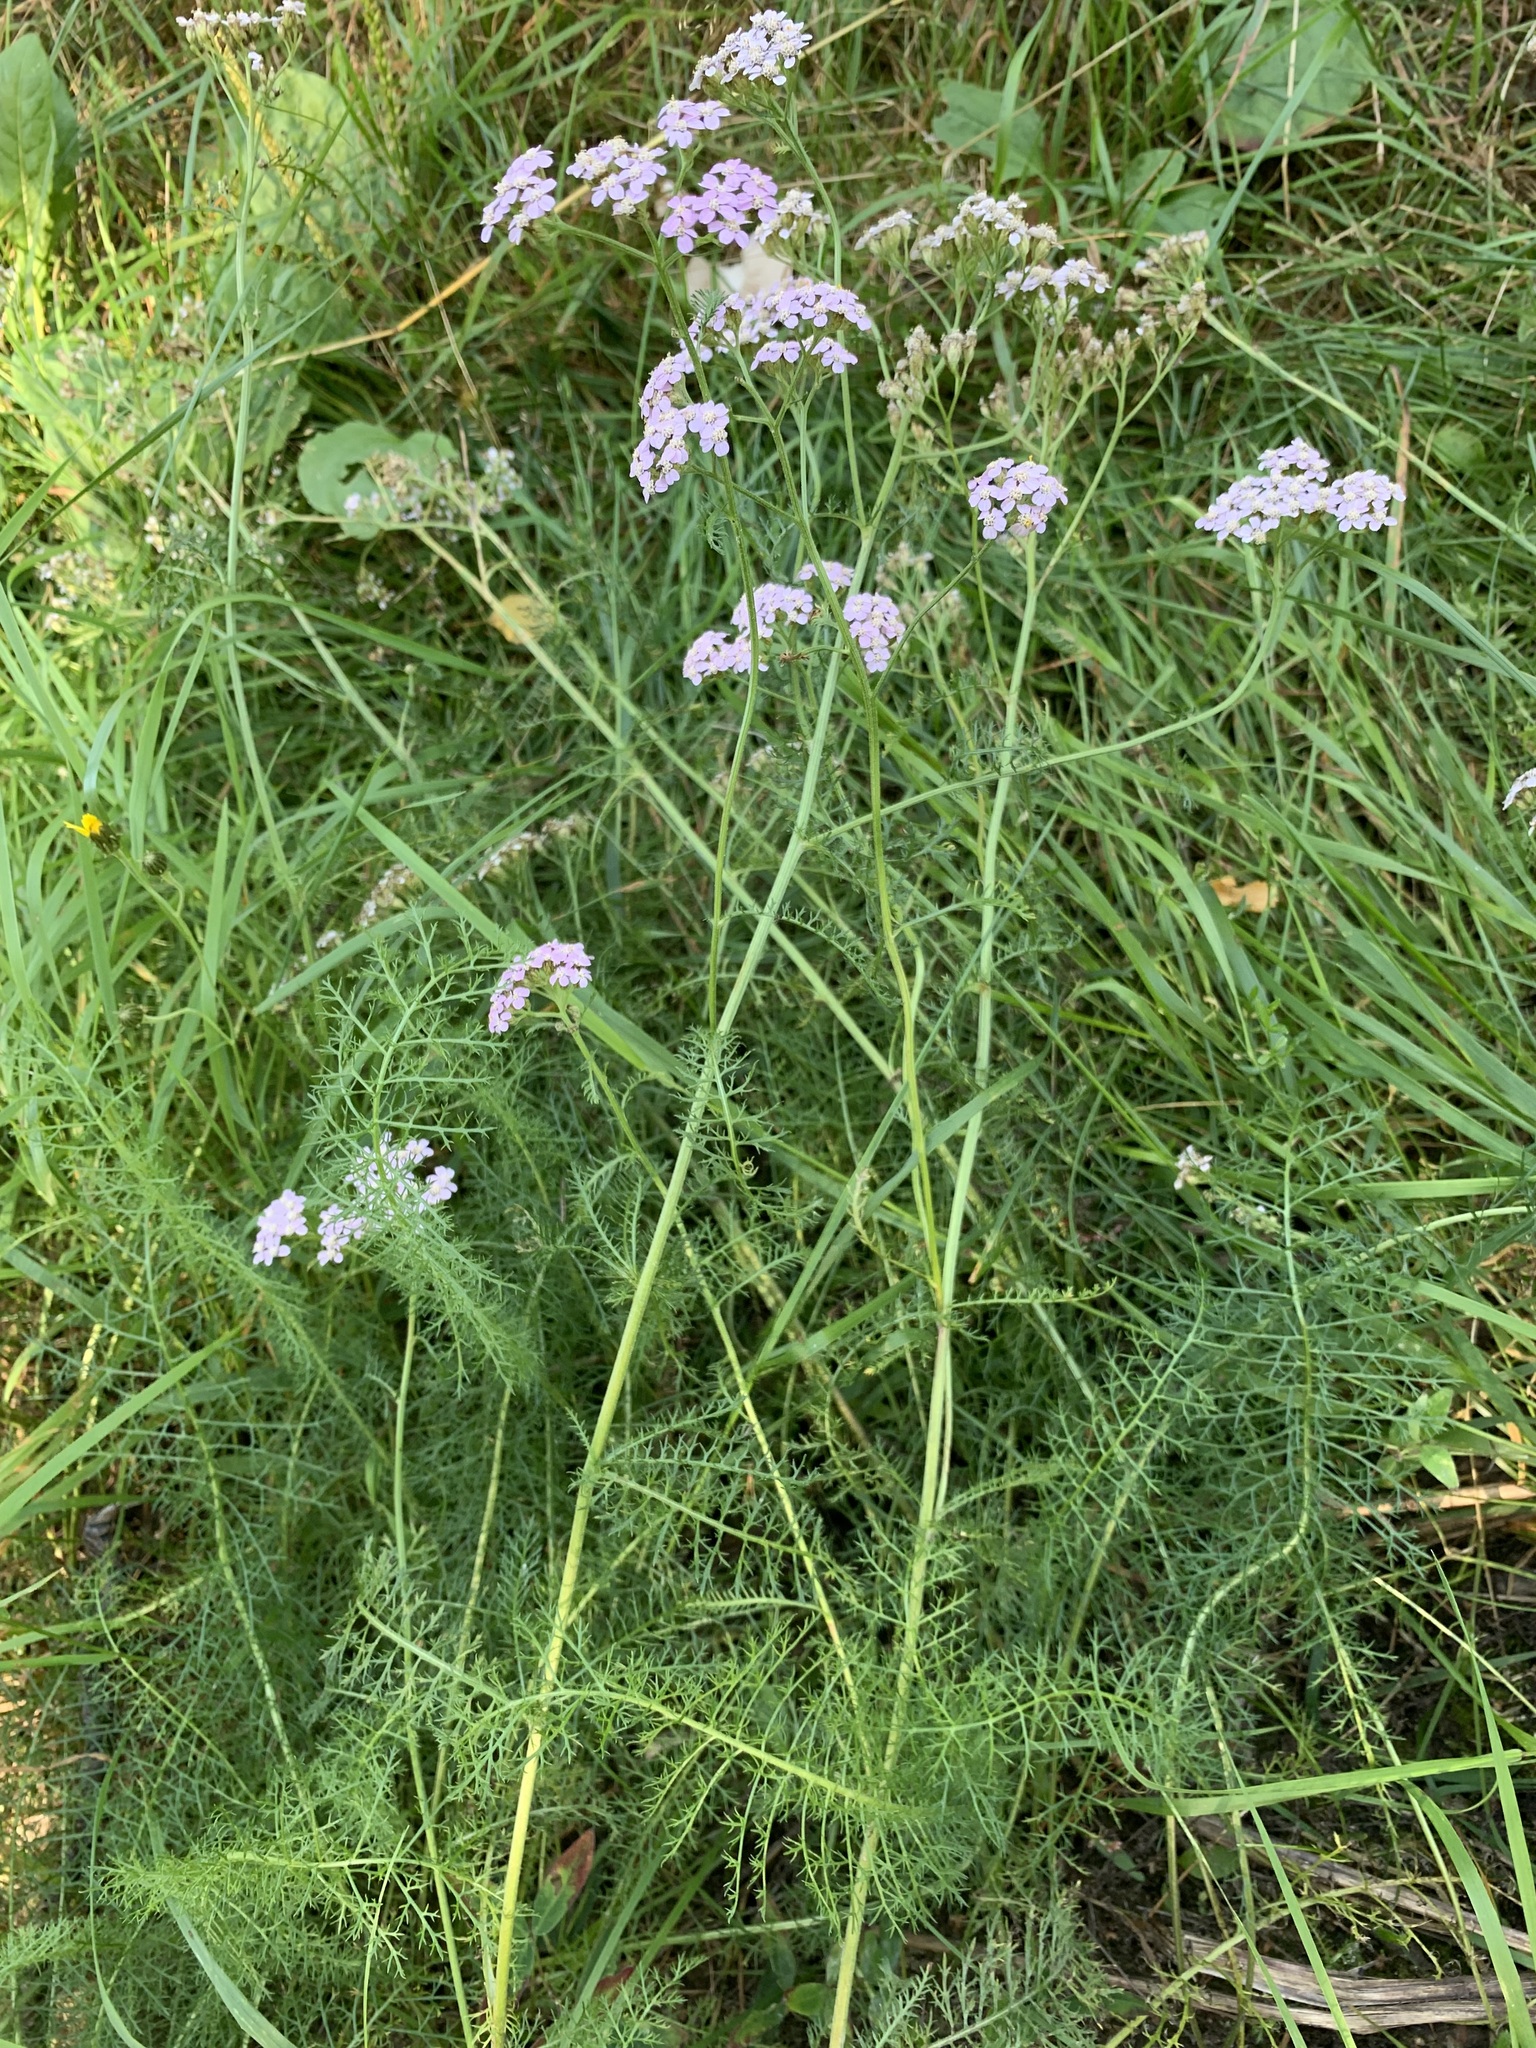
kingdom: Plantae
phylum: Tracheophyta
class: Magnoliopsida
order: Asterales
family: Asteraceae
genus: Achillea
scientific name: Achillea asiatica
